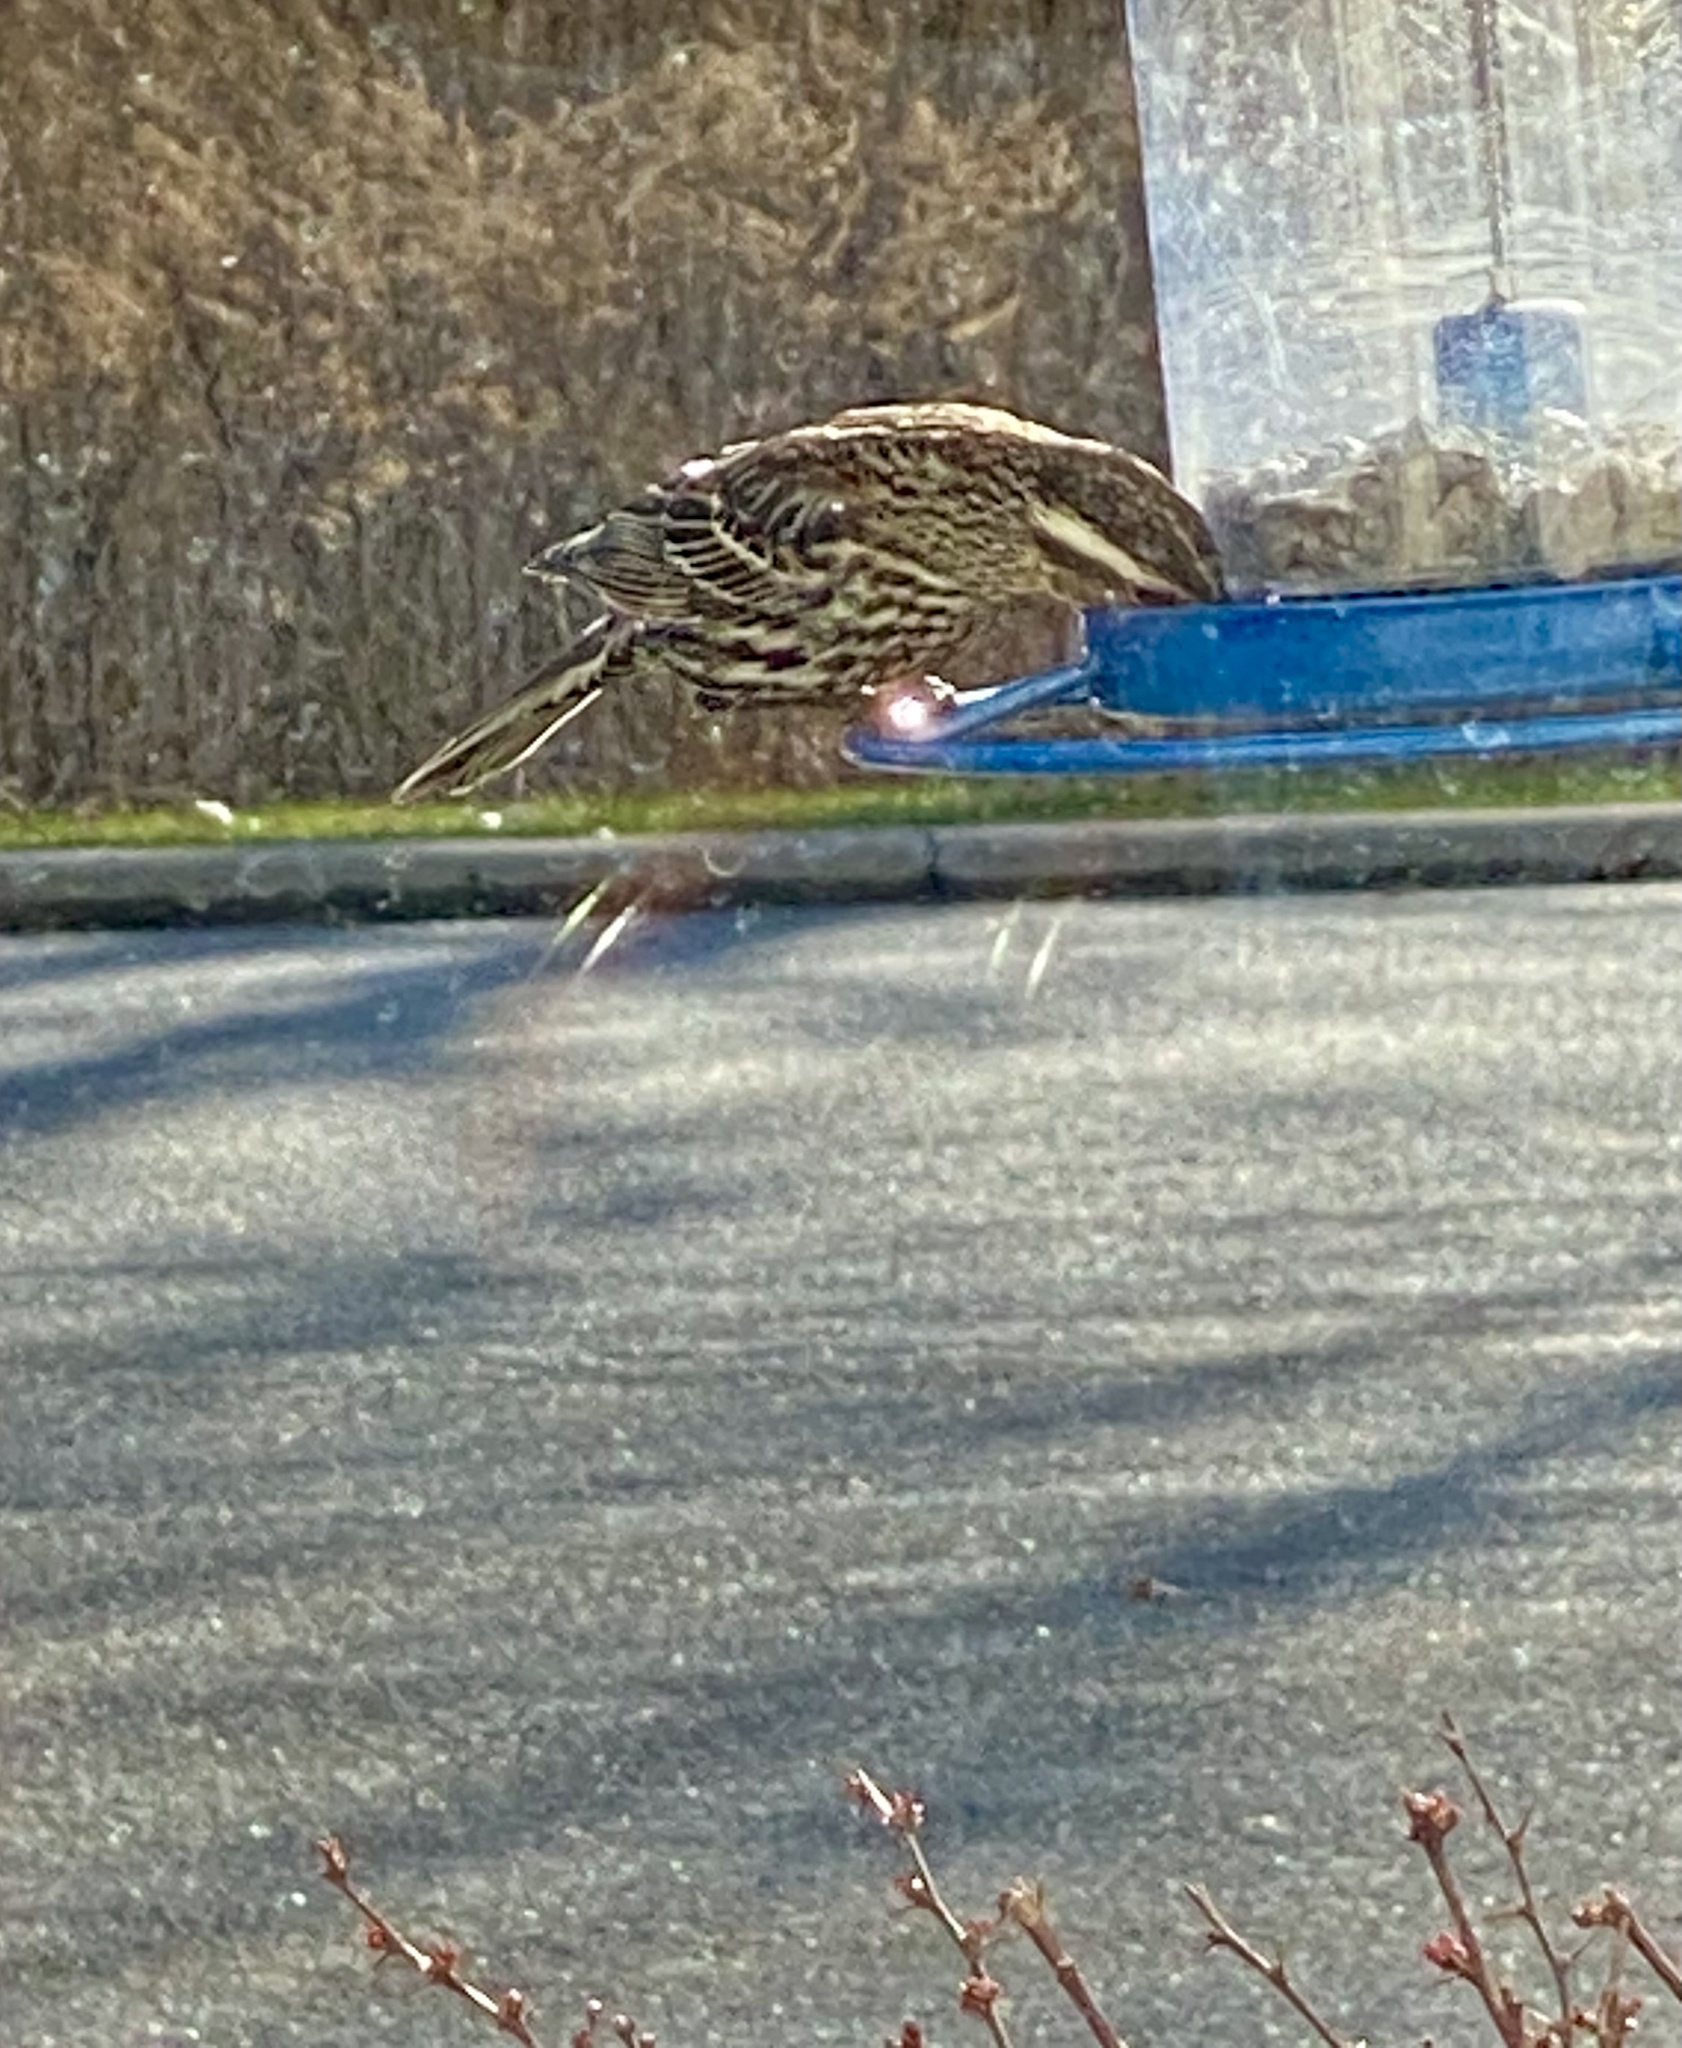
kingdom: Animalia
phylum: Chordata
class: Aves
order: Passeriformes
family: Icteridae
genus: Agelaius
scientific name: Agelaius phoeniceus
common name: Red-winged blackbird
